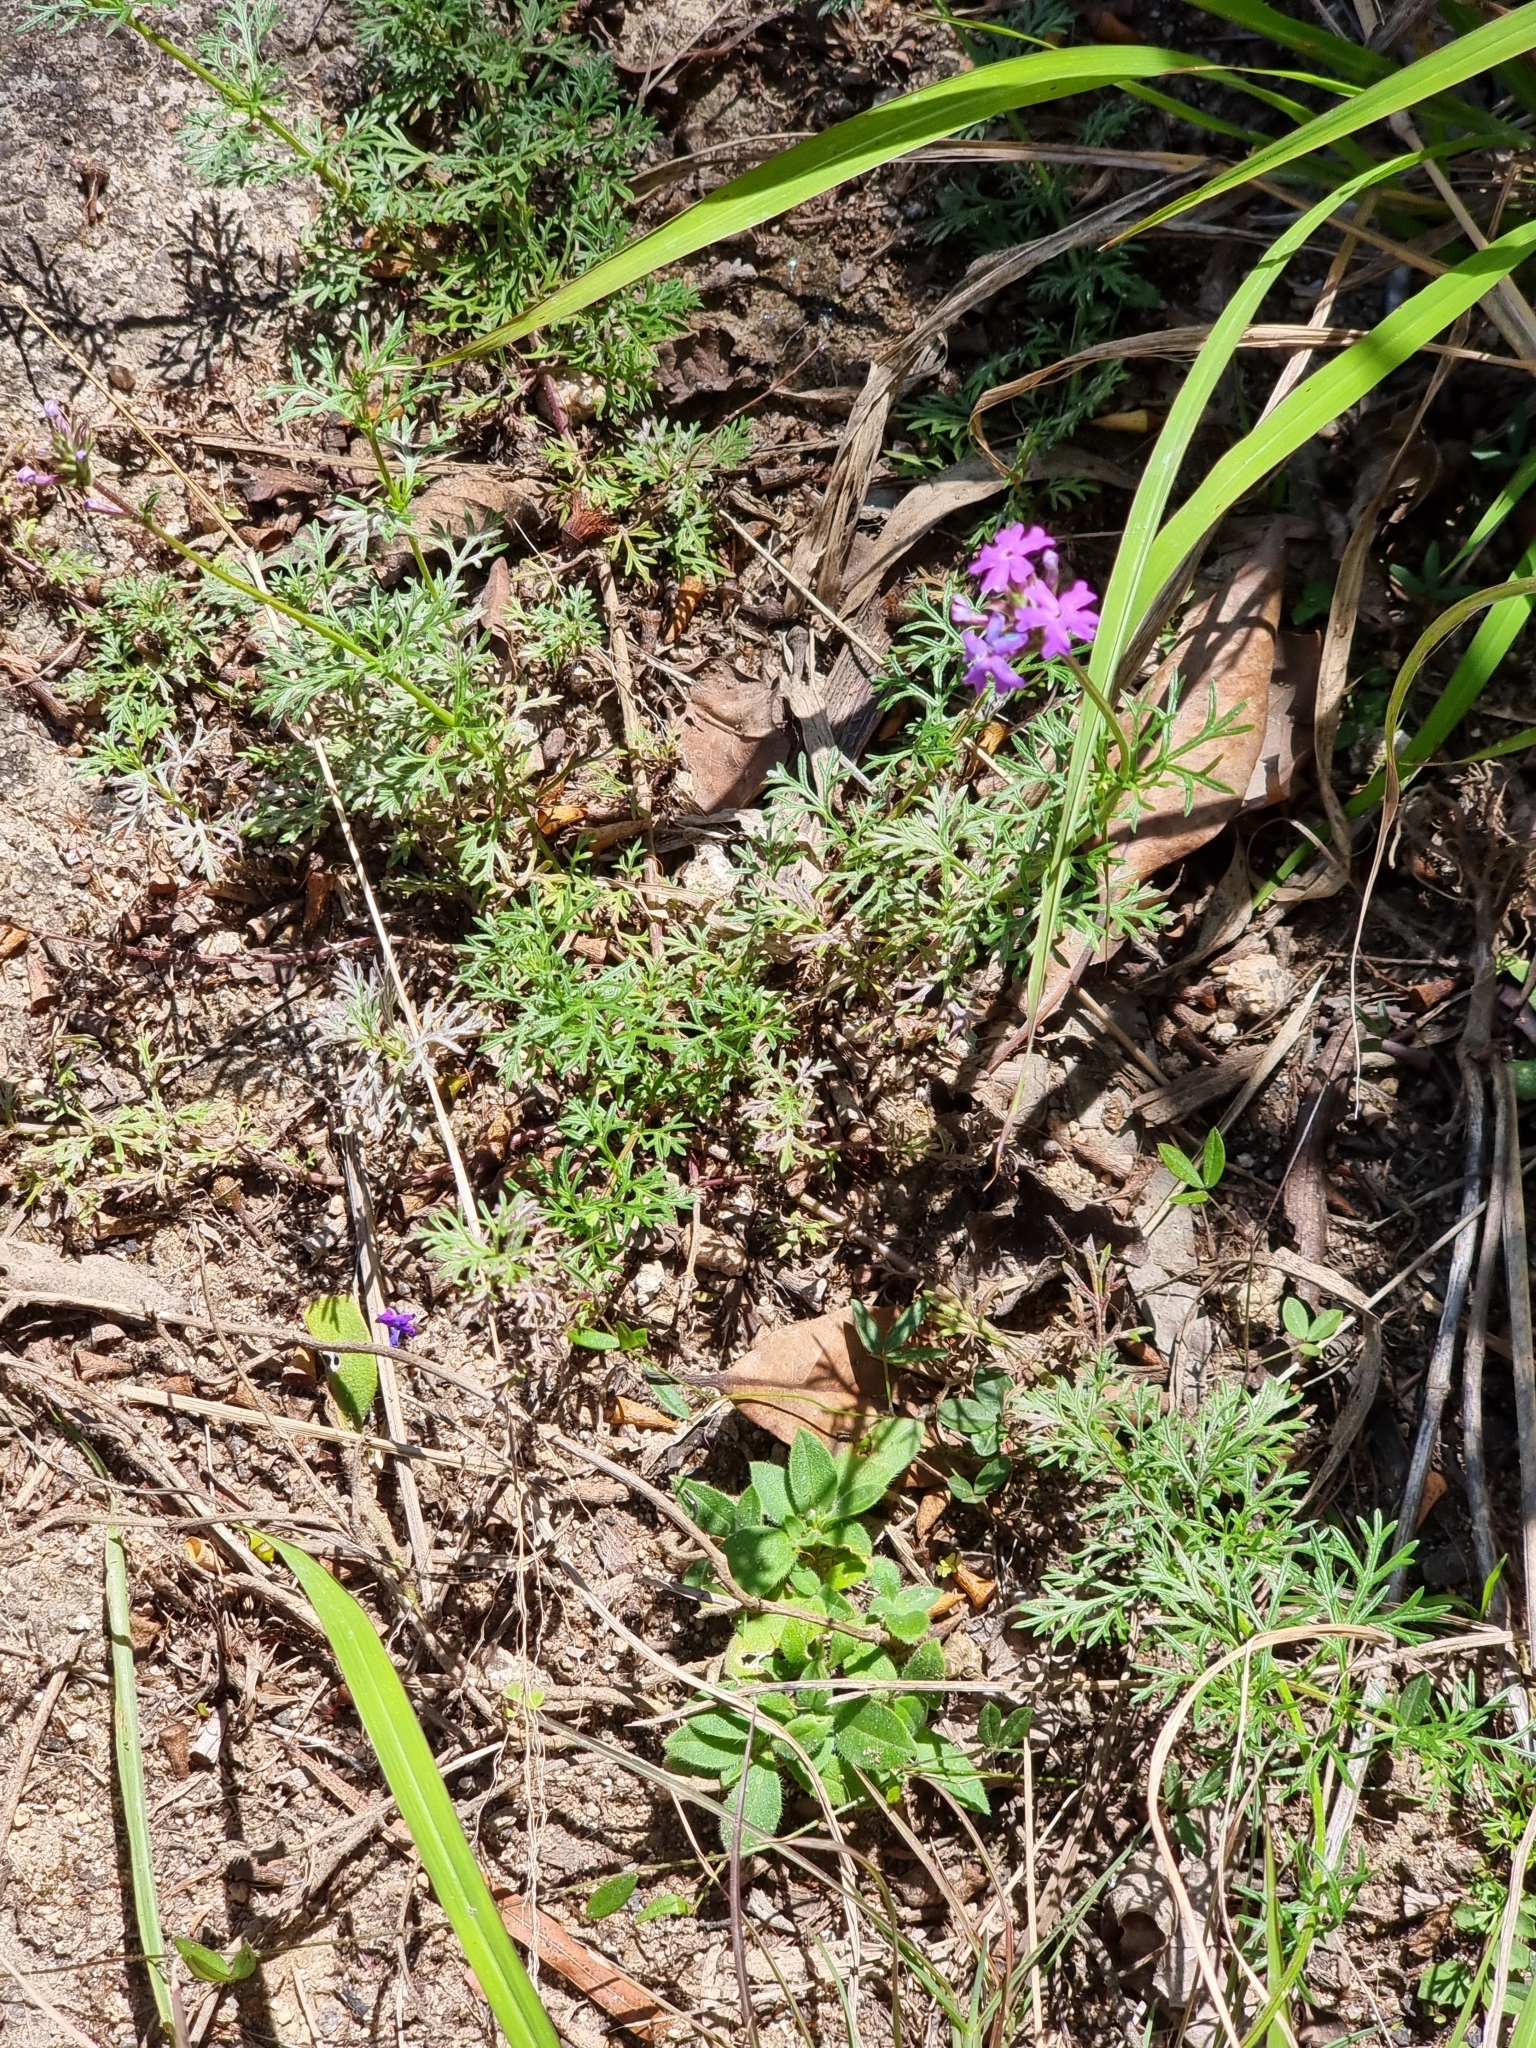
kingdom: Plantae
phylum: Tracheophyta
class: Magnoliopsida
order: Lamiales
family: Verbenaceae
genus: Verbena
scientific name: Verbena aristigera
